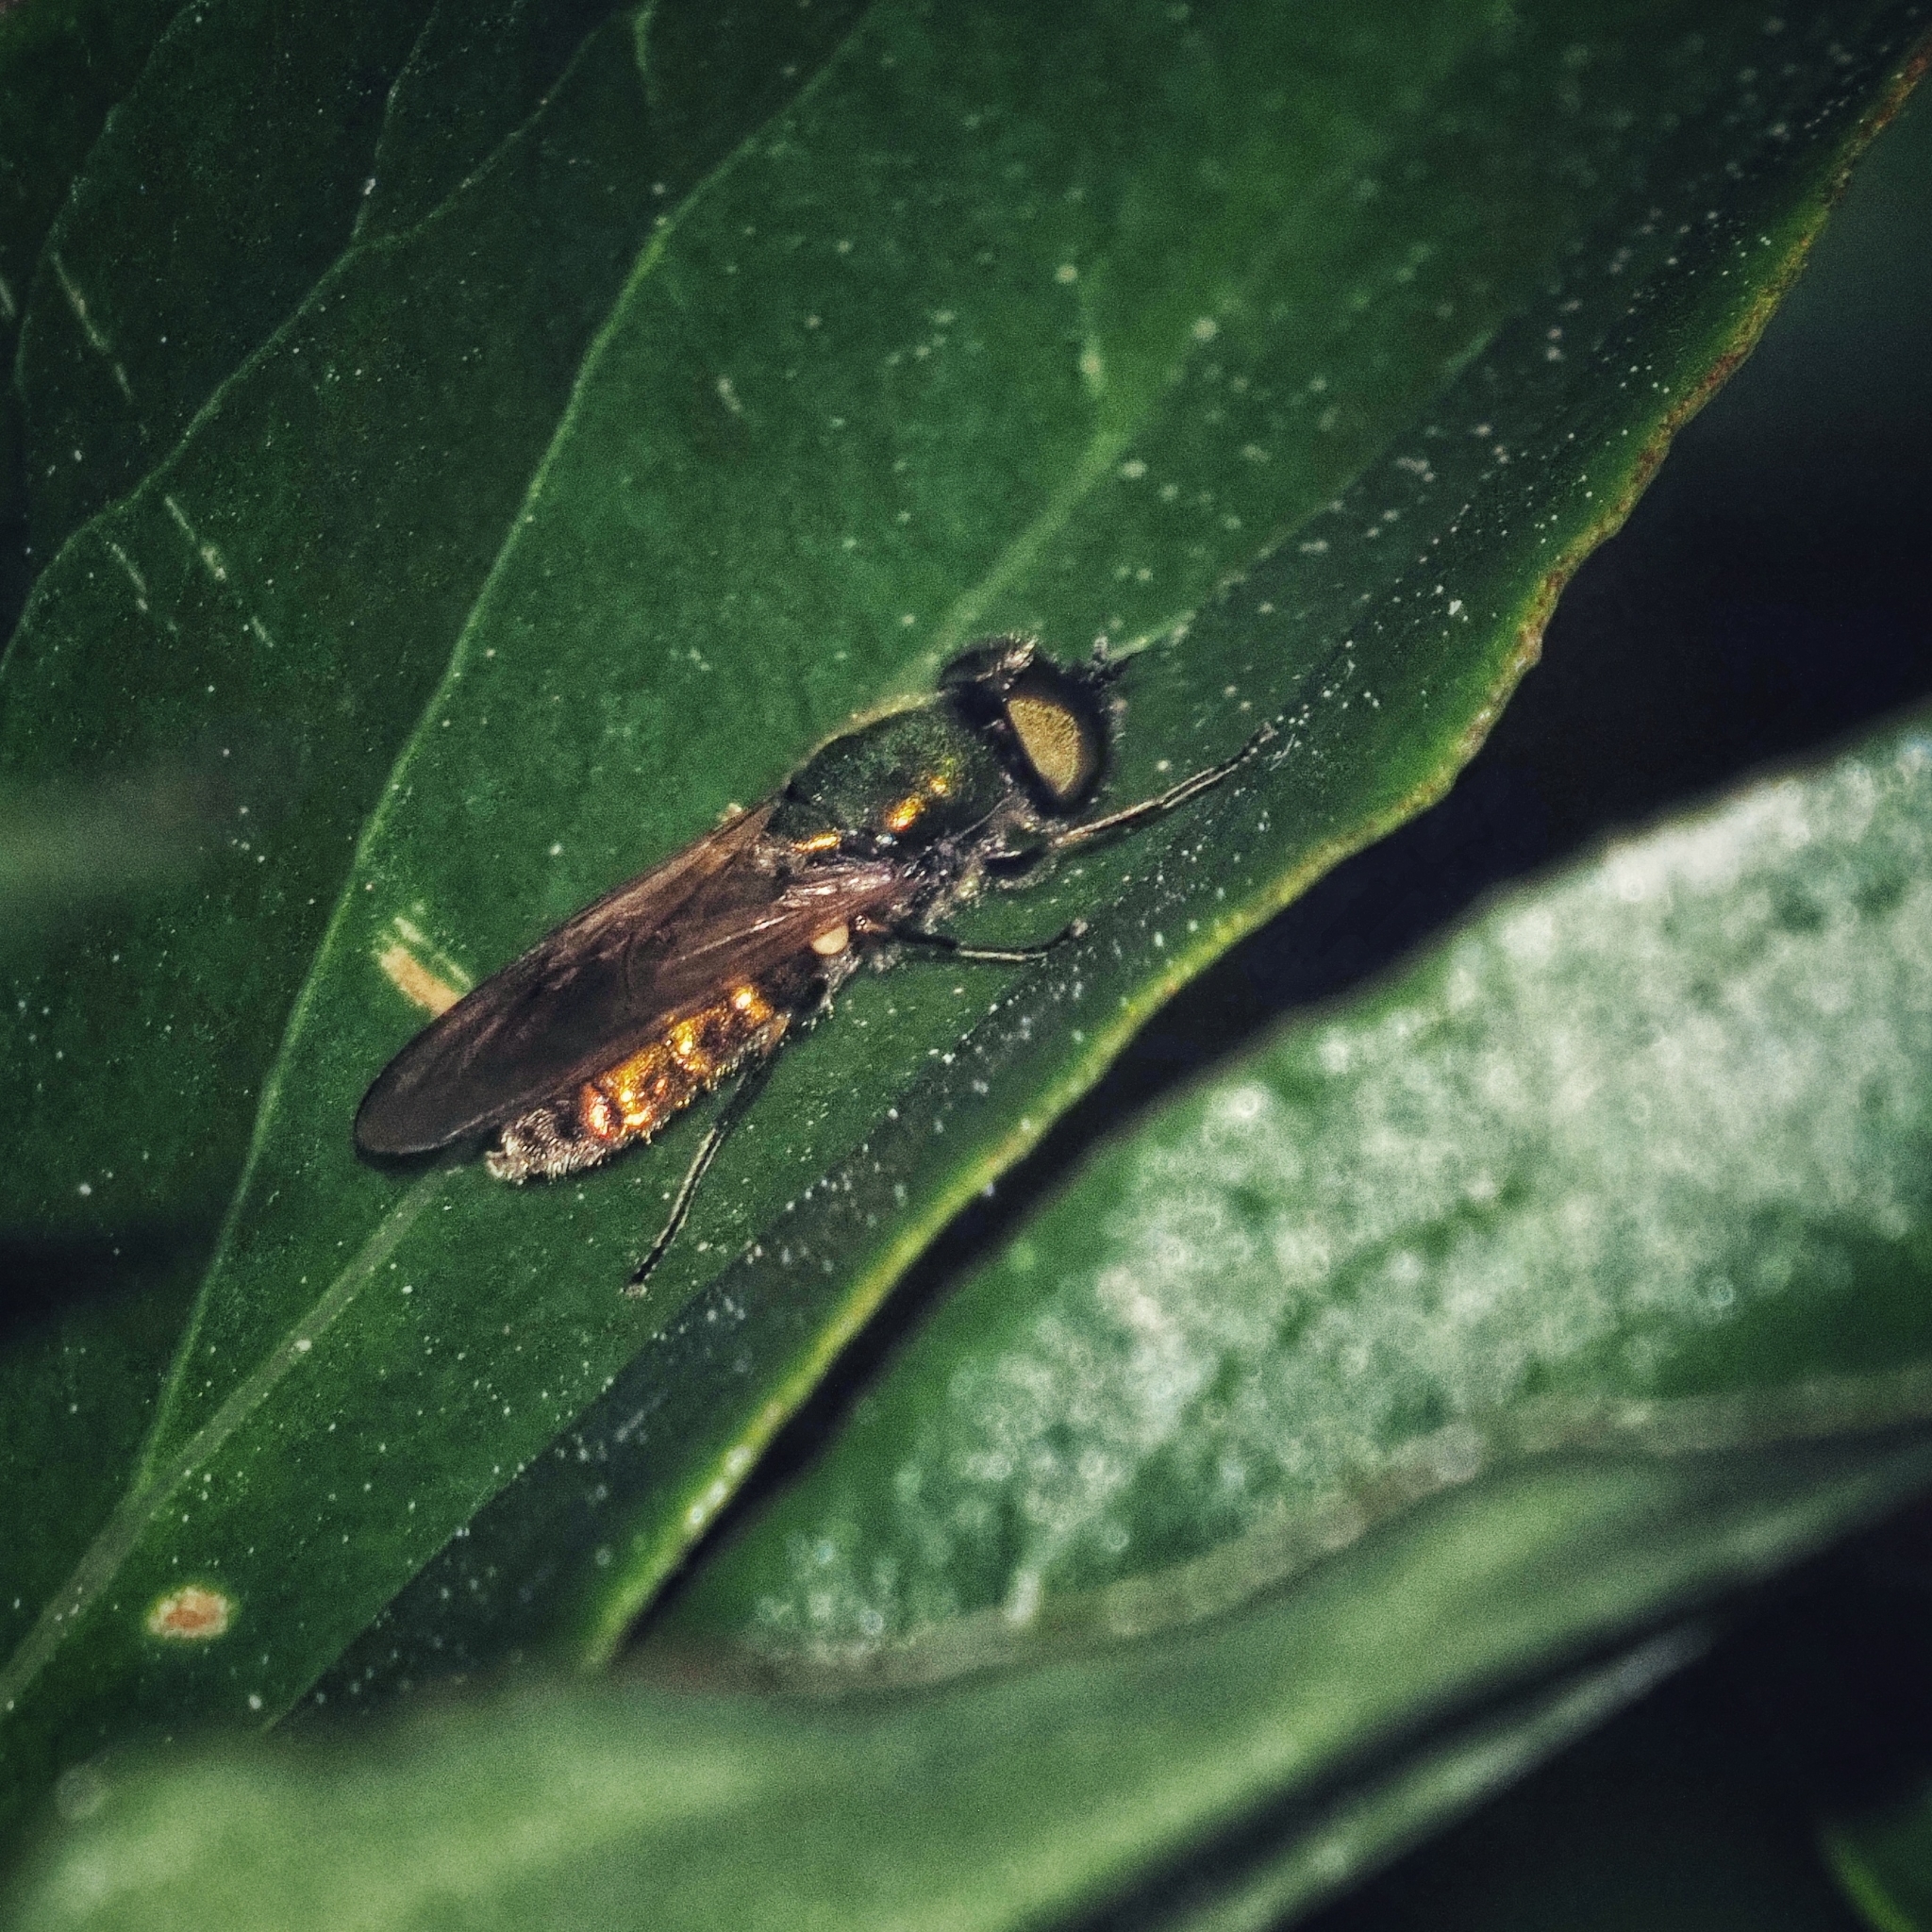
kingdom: Animalia
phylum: Arthropoda
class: Insecta
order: Diptera
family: Stratiomyidae
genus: Chloromyia
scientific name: Chloromyia formosa
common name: Soldier fly
